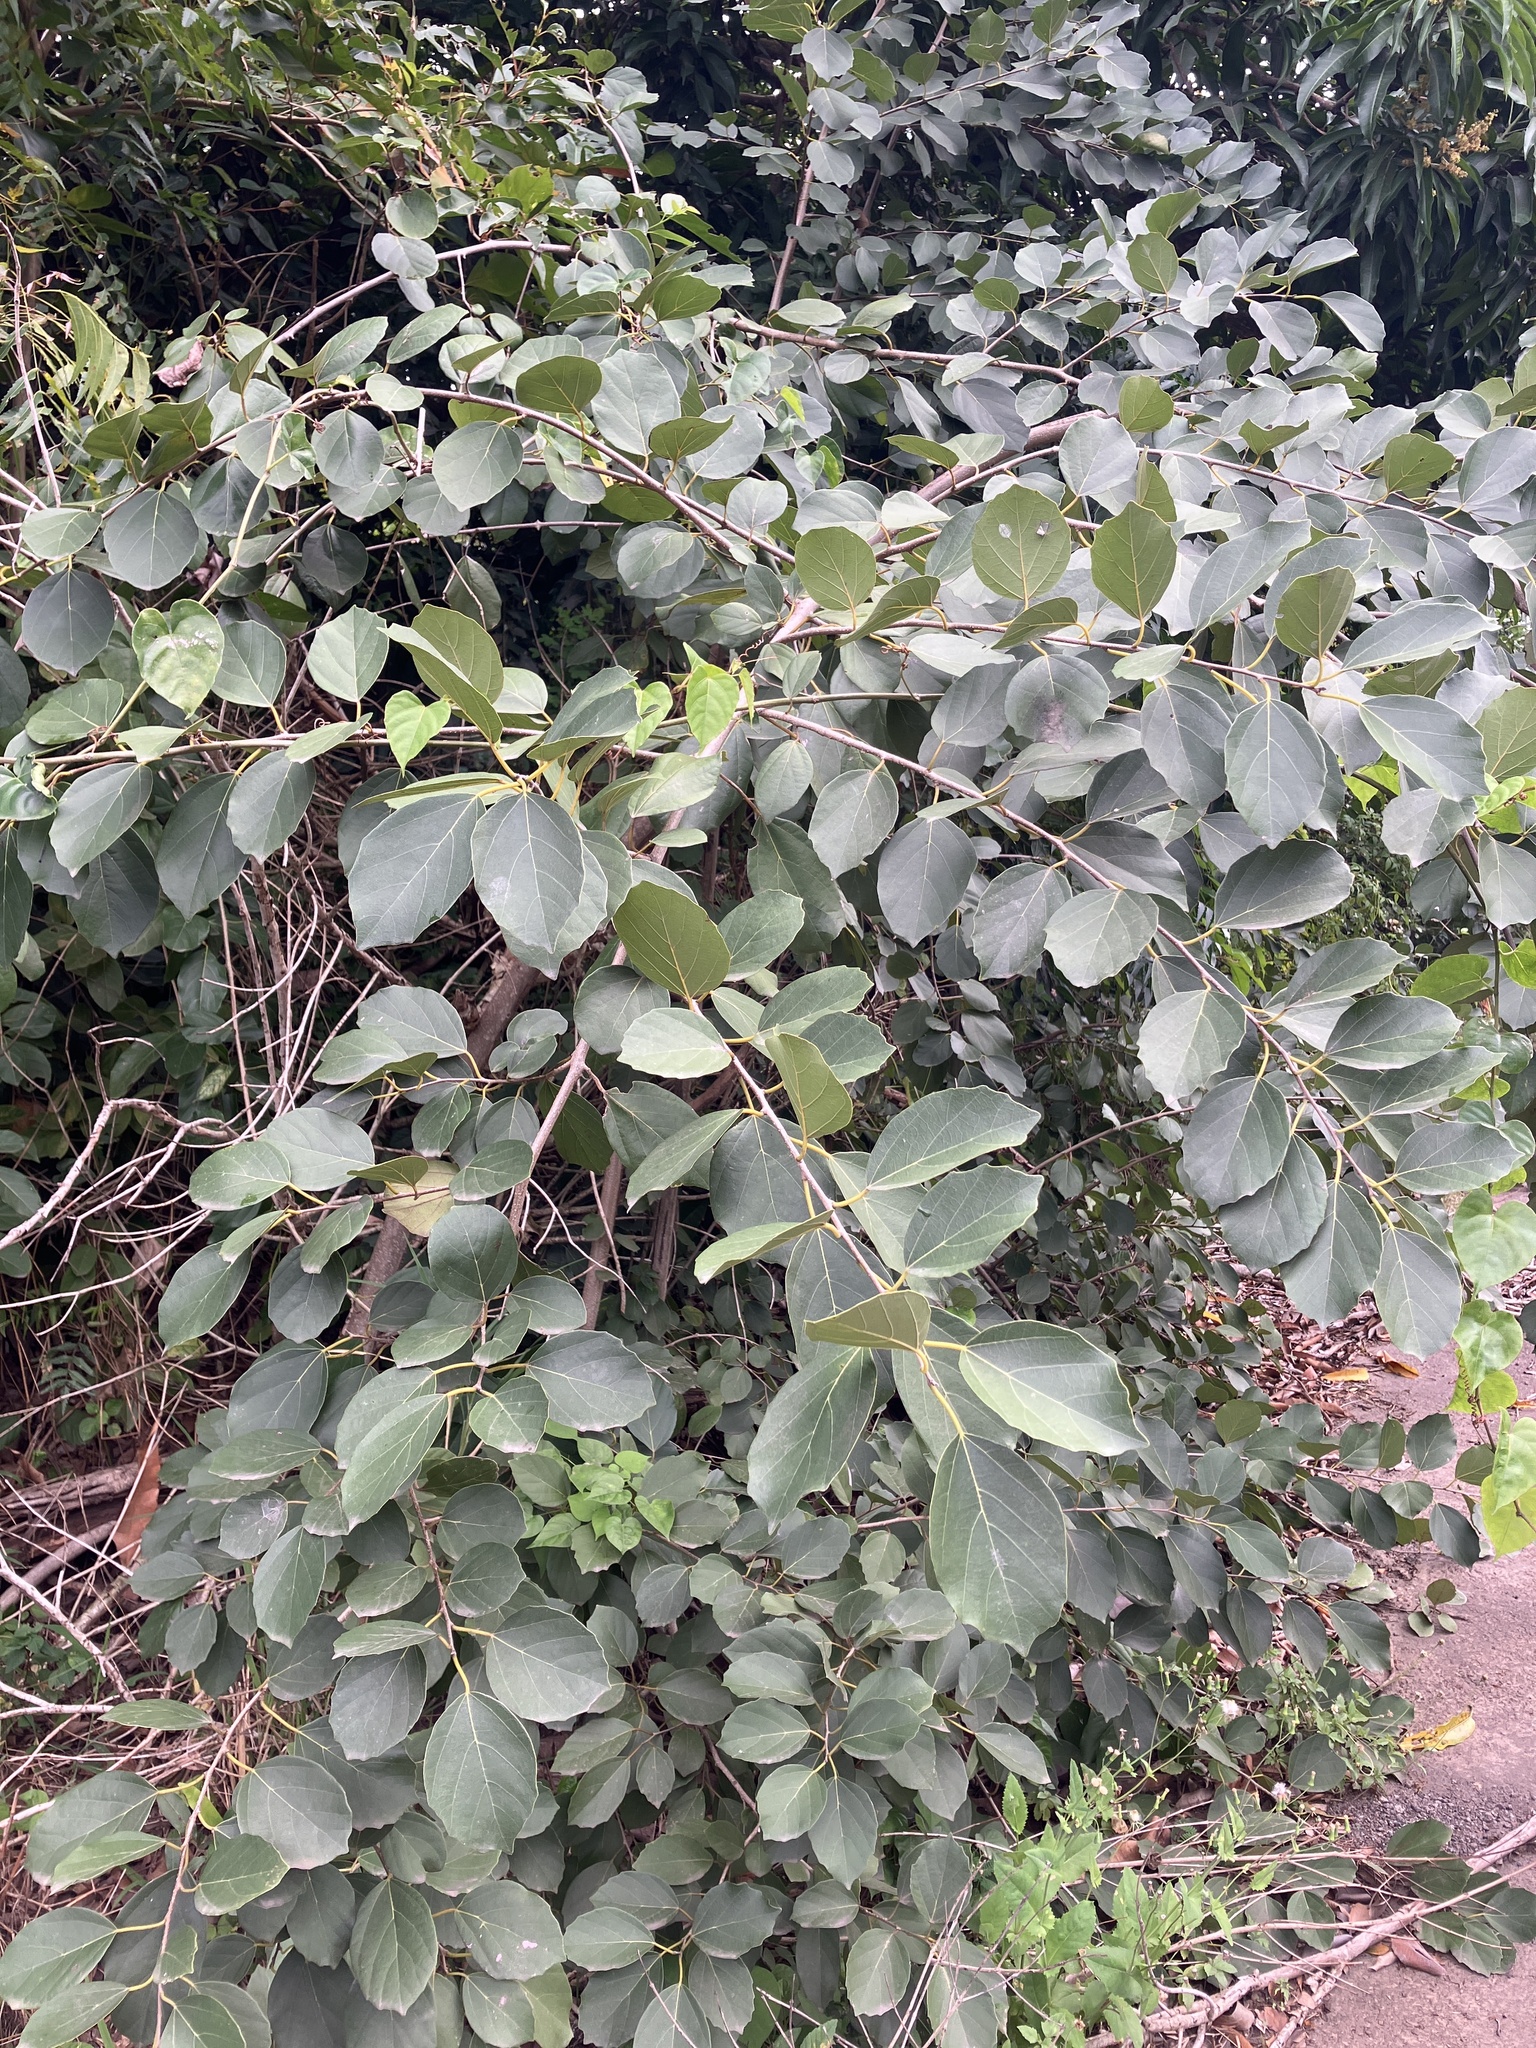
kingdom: Plantae
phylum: Tracheophyta
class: Magnoliopsida
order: Boraginales
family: Cordiaceae
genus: Cordia
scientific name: Cordia dichotoma
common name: Fragrant manjack
